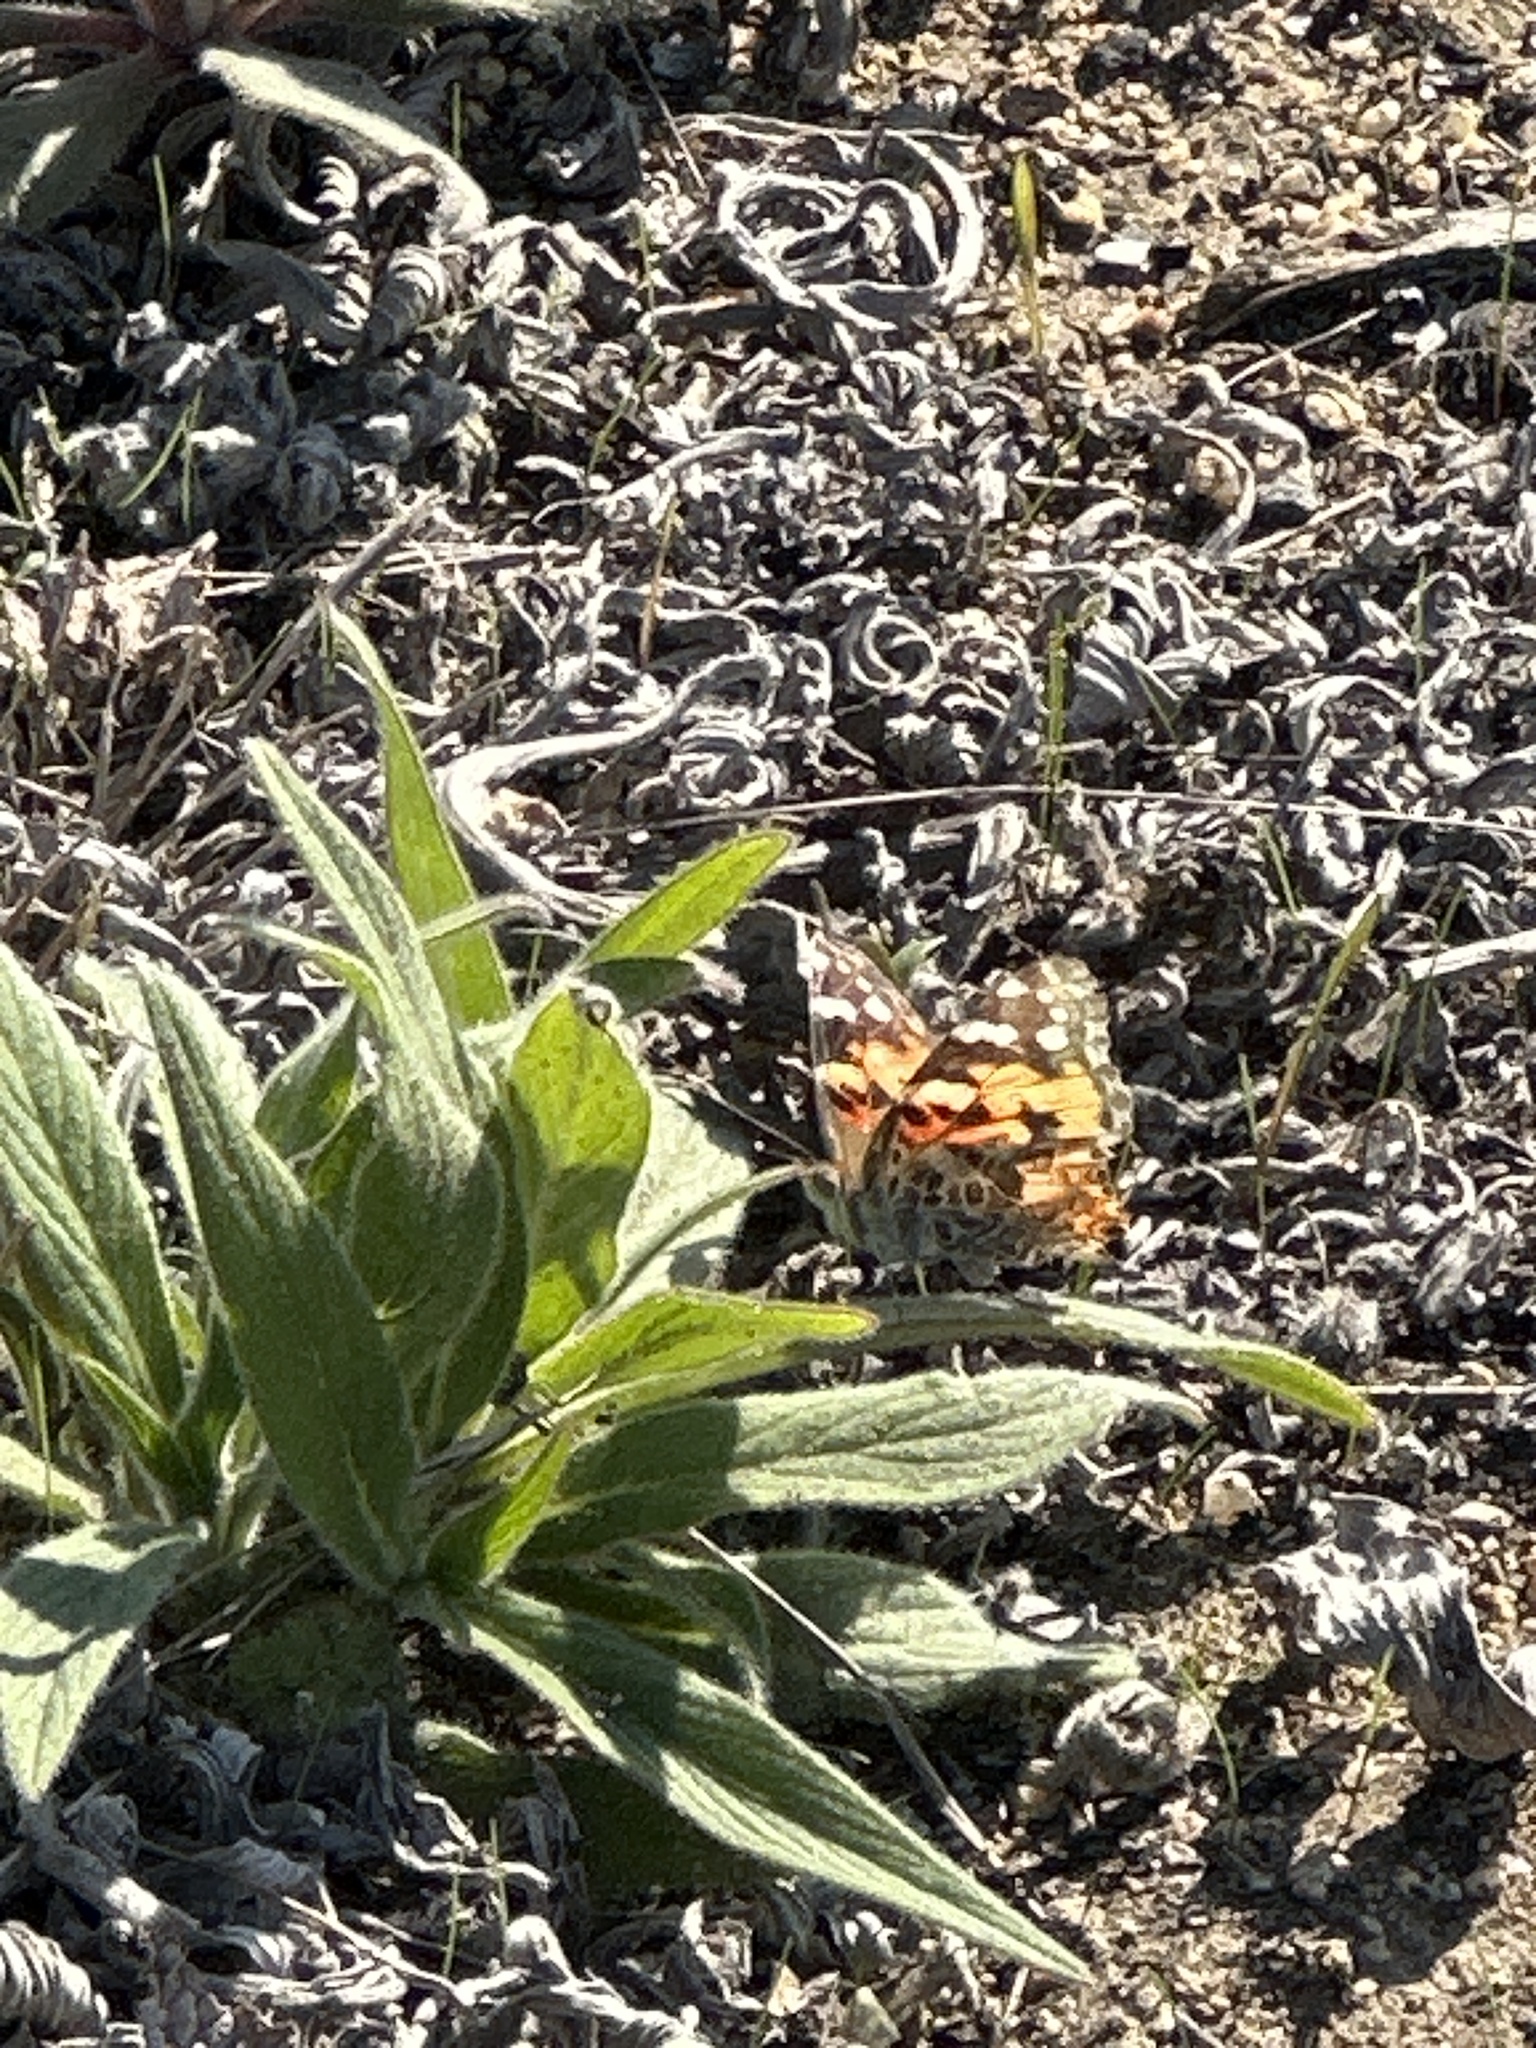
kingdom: Animalia
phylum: Arthropoda
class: Insecta
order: Lepidoptera
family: Nymphalidae
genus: Vanessa
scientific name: Vanessa cardui
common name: Painted lady
